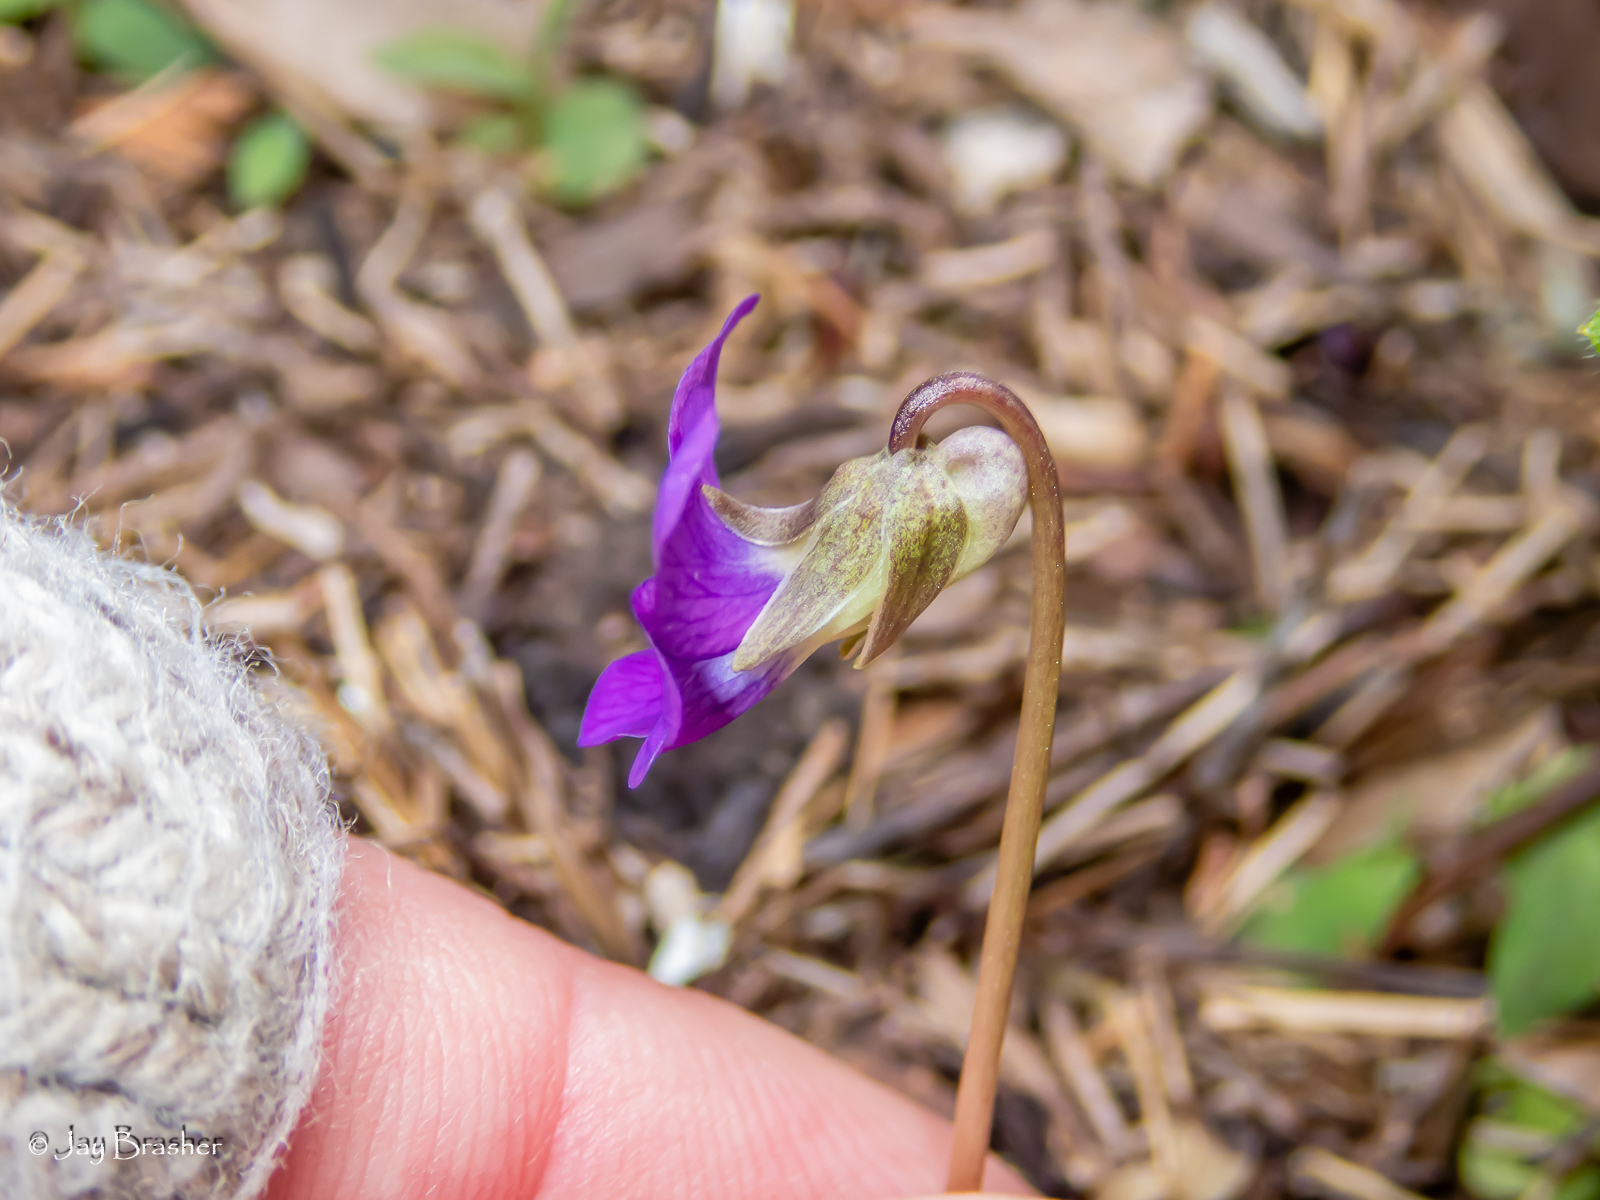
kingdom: Plantae
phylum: Tracheophyta
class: Magnoliopsida
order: Malpighiales
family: Violaceae
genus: Viola
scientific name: Viola sororia
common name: Dooryard violet
